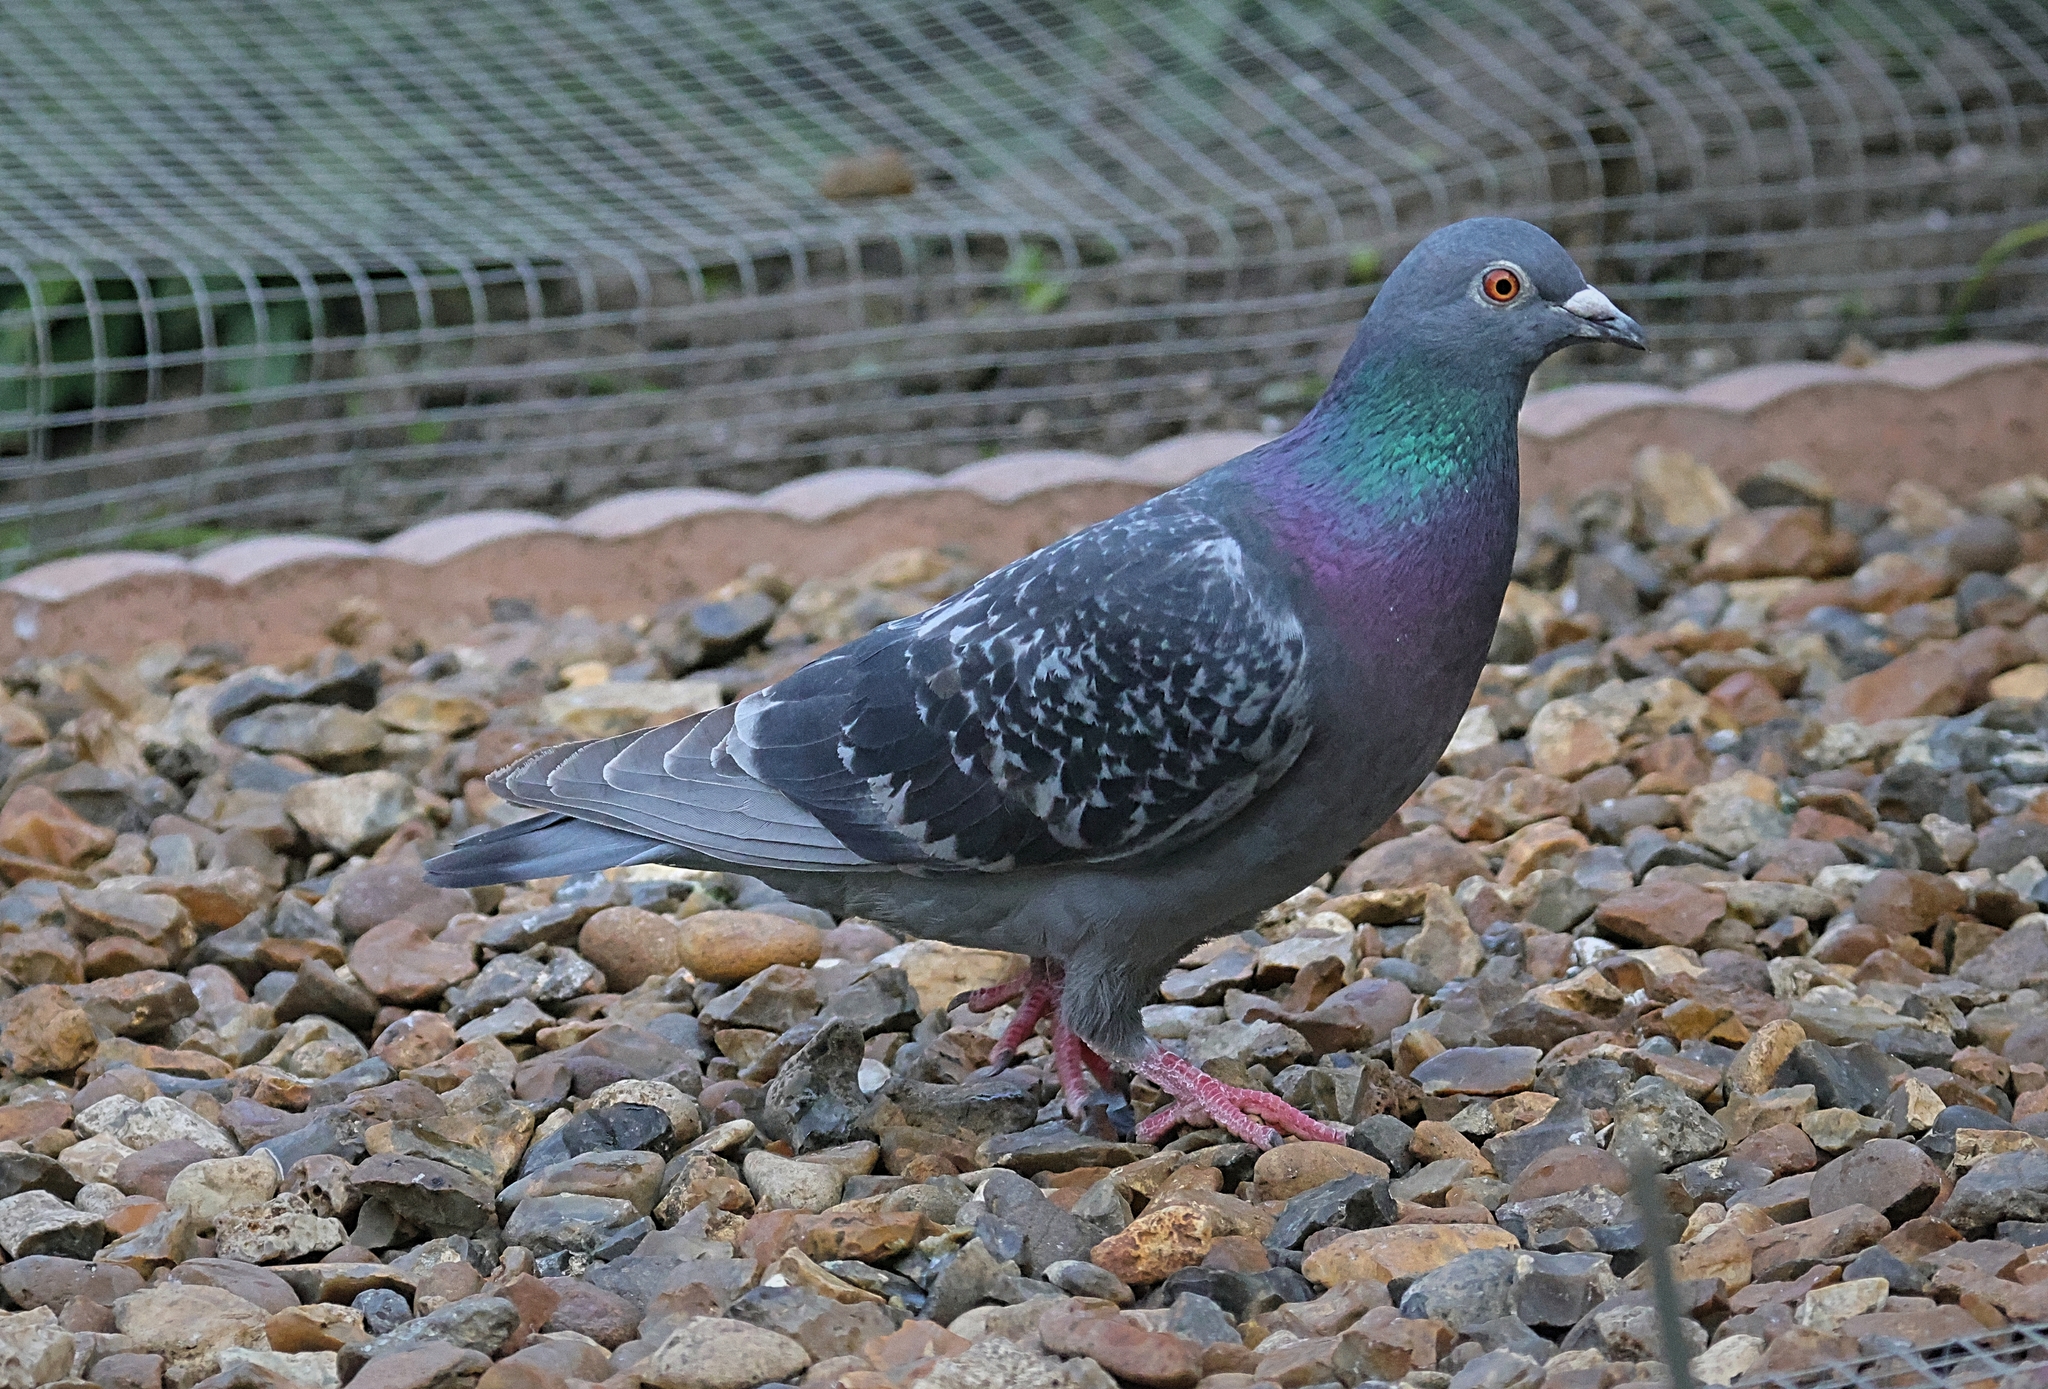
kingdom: Animalia
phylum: Chordata
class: Aves
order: Columbiformes
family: Columbidae
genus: Columba
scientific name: Columba livia
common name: Rock pigeon
